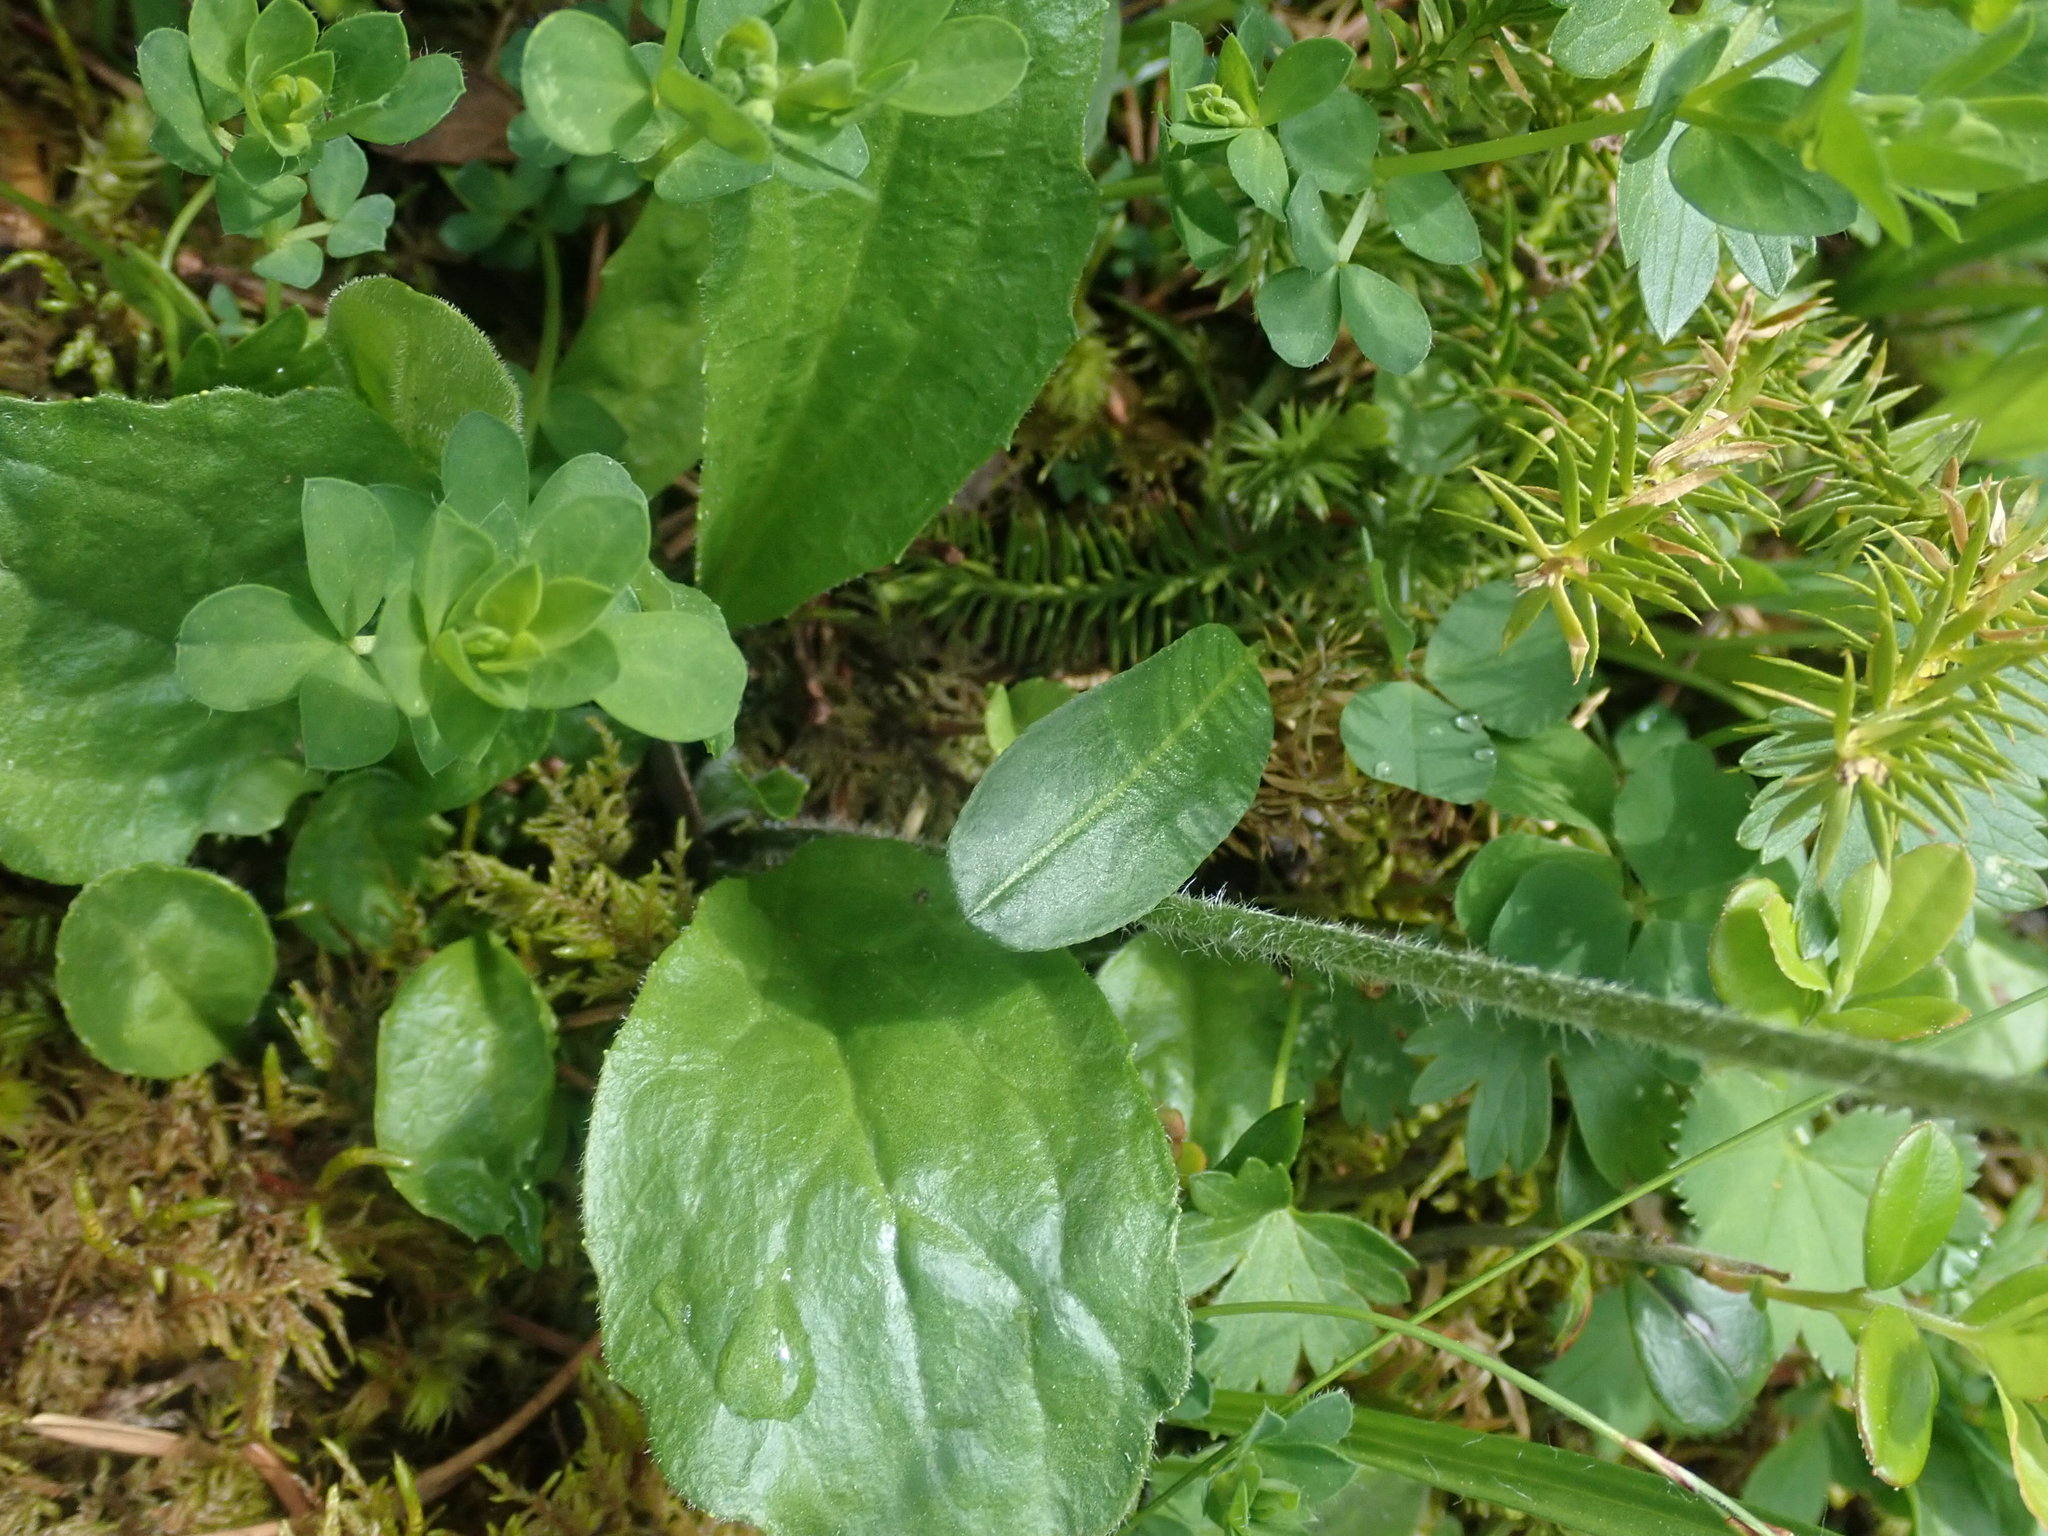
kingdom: Plantae
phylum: Tracheophyta
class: Magnoliopsida
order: Asterales
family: Asteraceae
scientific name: Asteraceae
